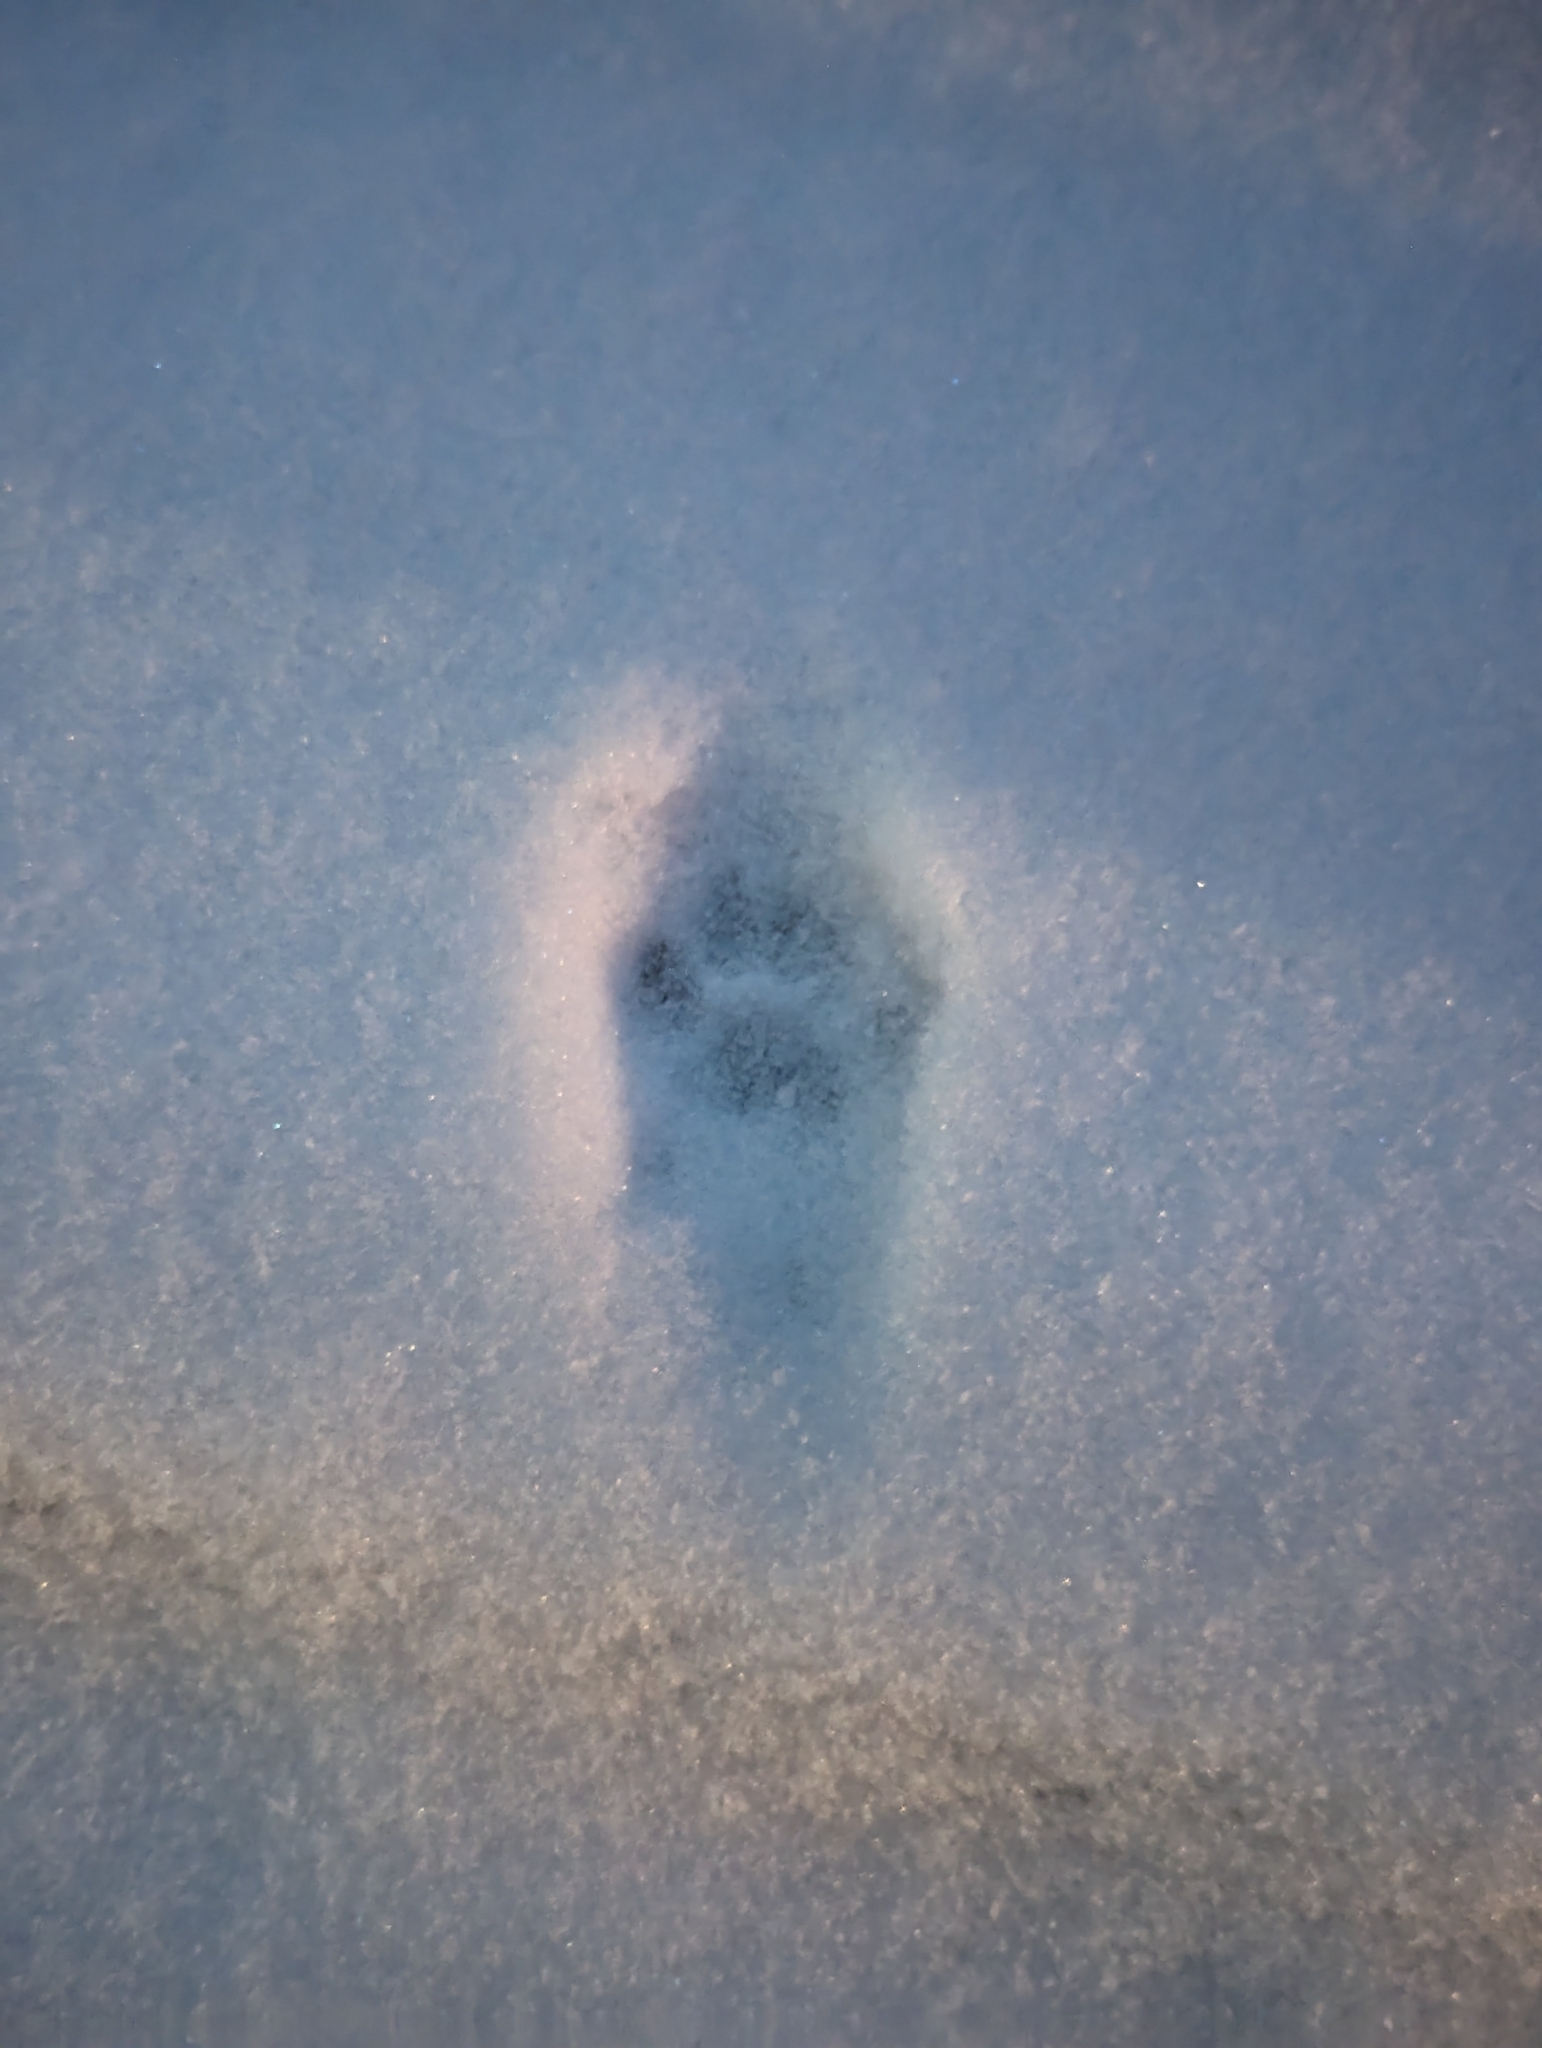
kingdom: Animalia
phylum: Chordata
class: Mammalia
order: Carnivora
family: Felidae
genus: Felis
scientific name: Felis catus
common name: Domestic cat
